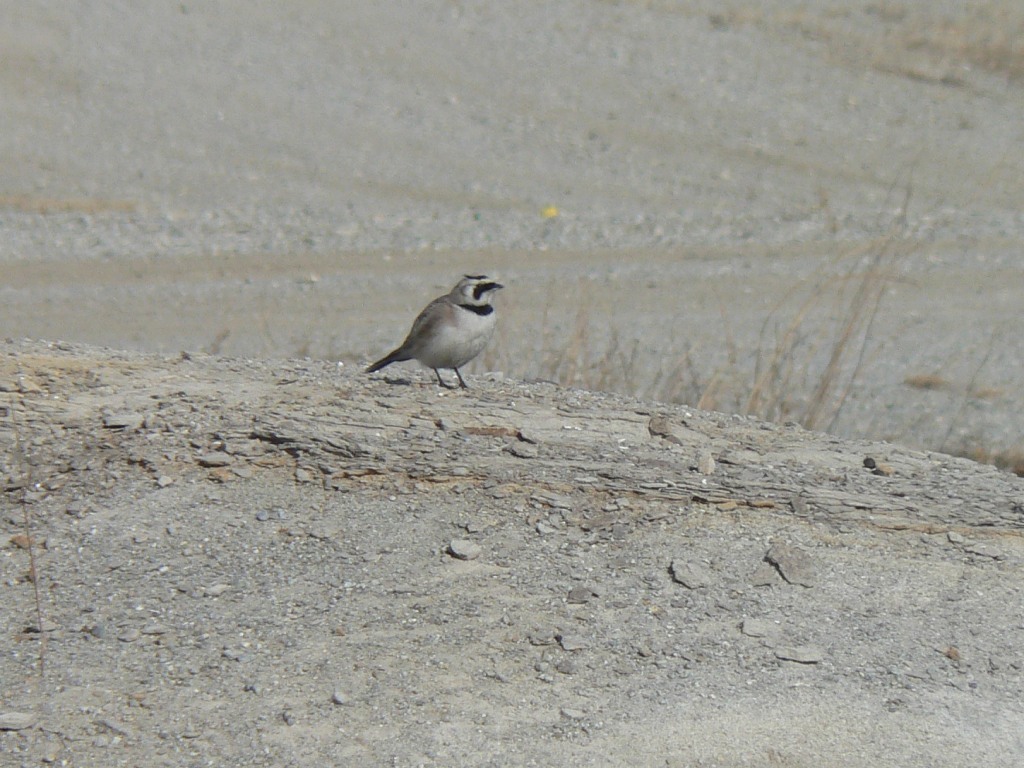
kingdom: Animalia
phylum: Chordata
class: Aves
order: Passeriformes
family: Alaudidae
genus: Eremophila
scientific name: Eremophila alpestris
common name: Horned lark
